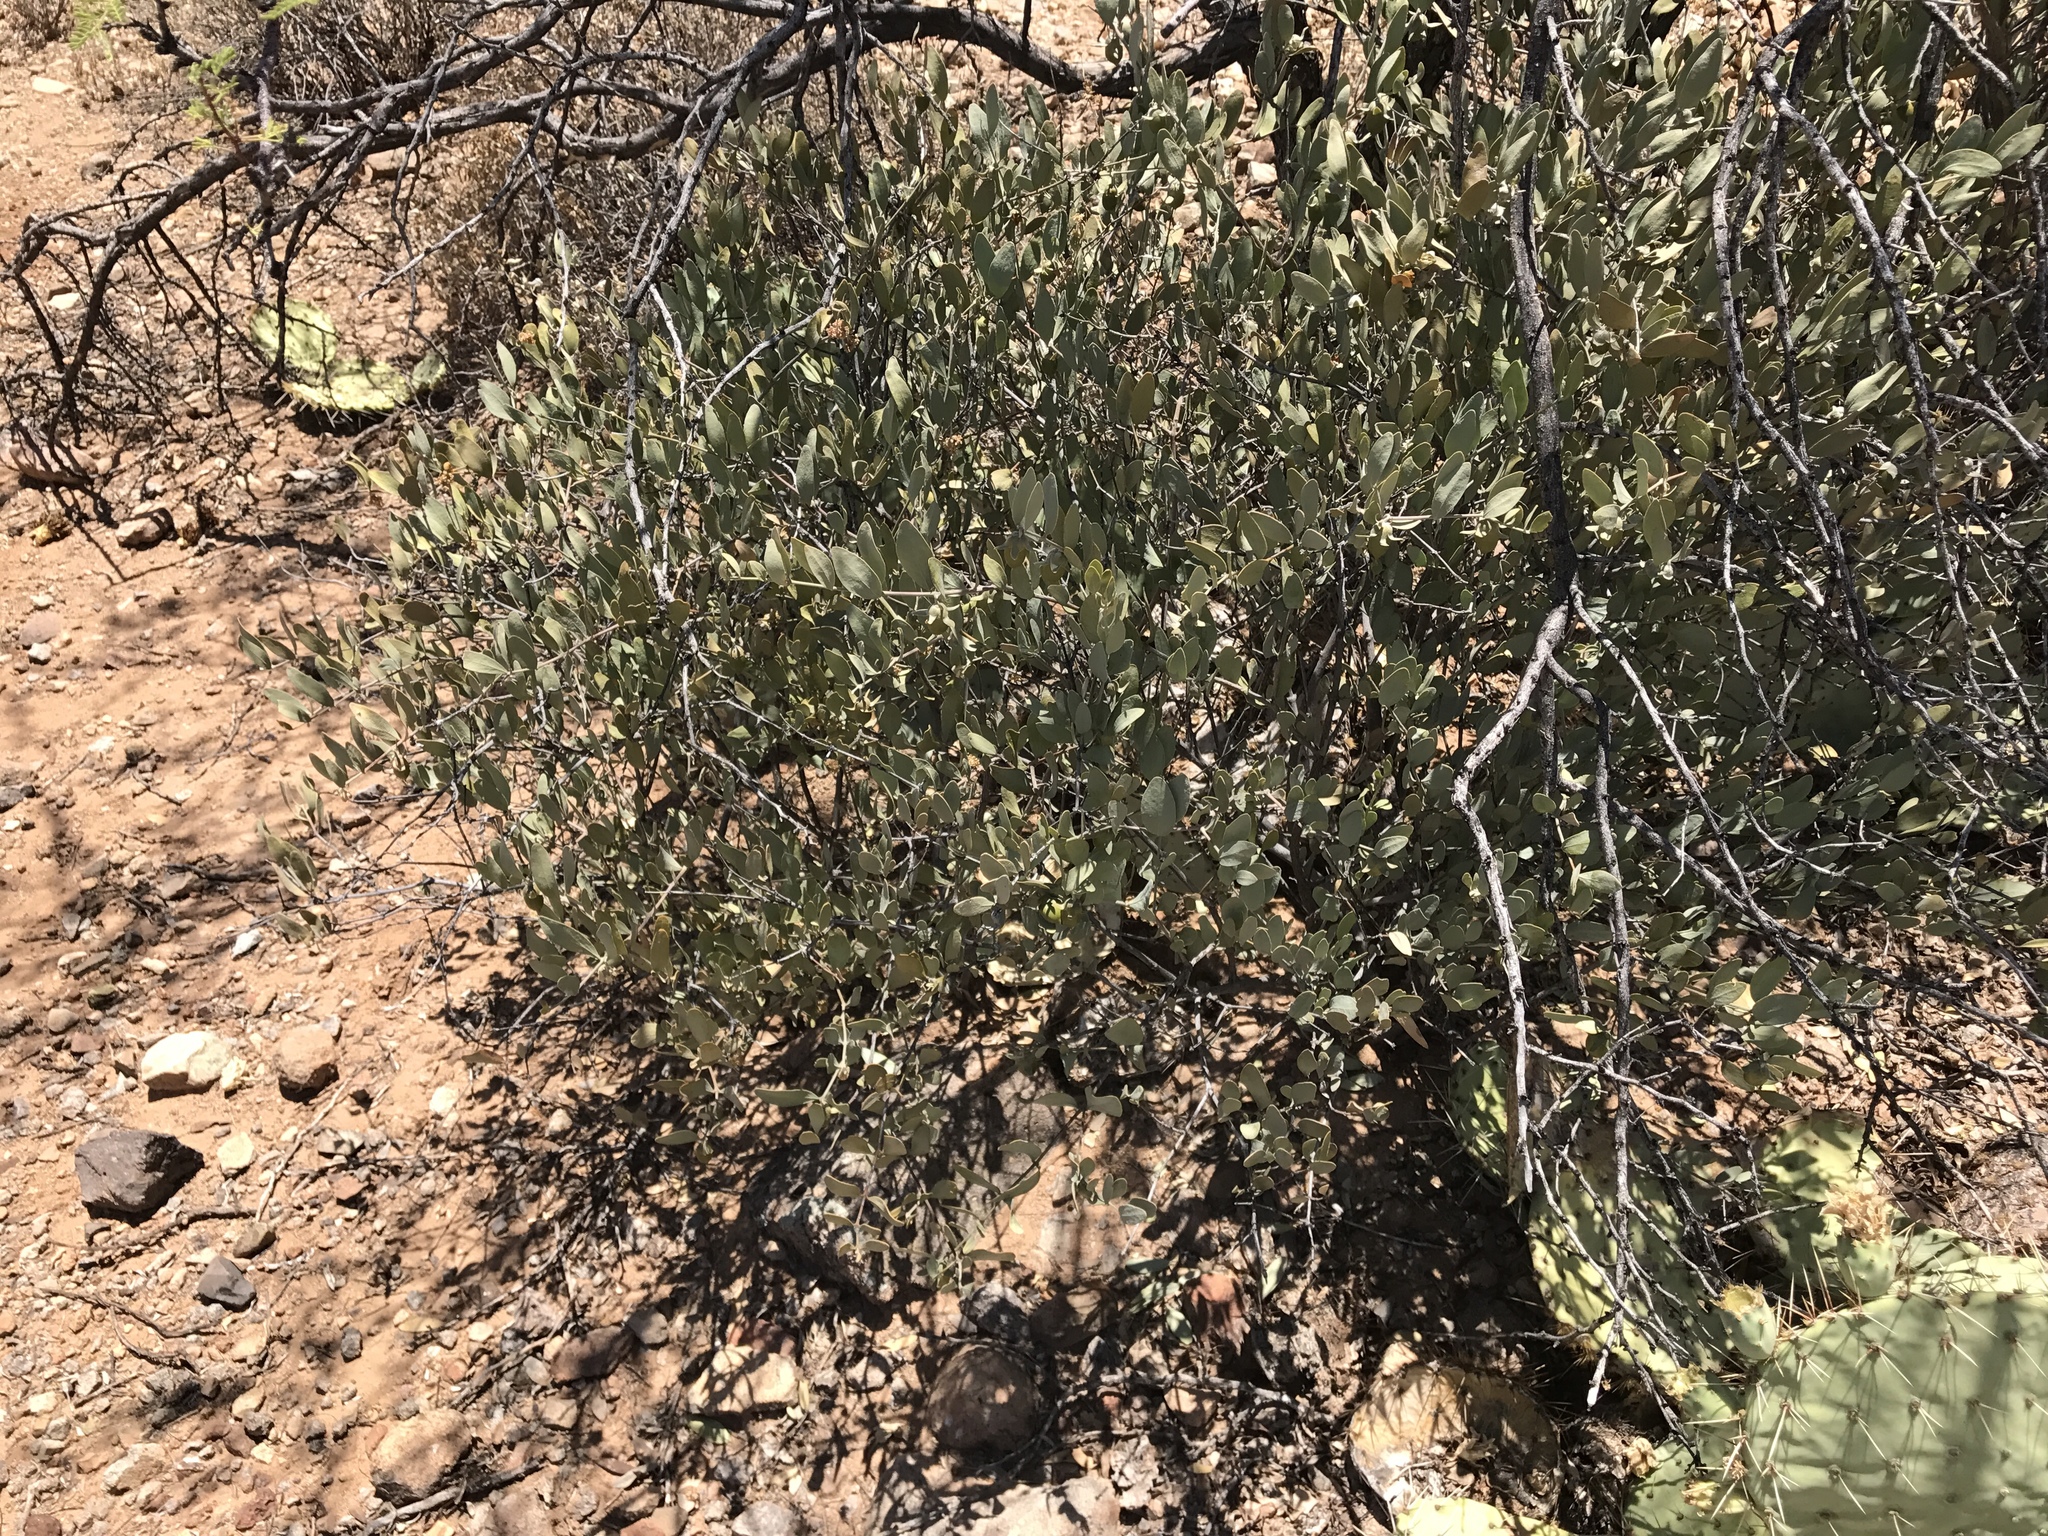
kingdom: Plantae
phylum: Tracheophyta
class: Magnoliopsida
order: Caryophyllales
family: Simmondsiaceae
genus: Simmondsia
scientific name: Simmondsia chinensis
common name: Jojoba
